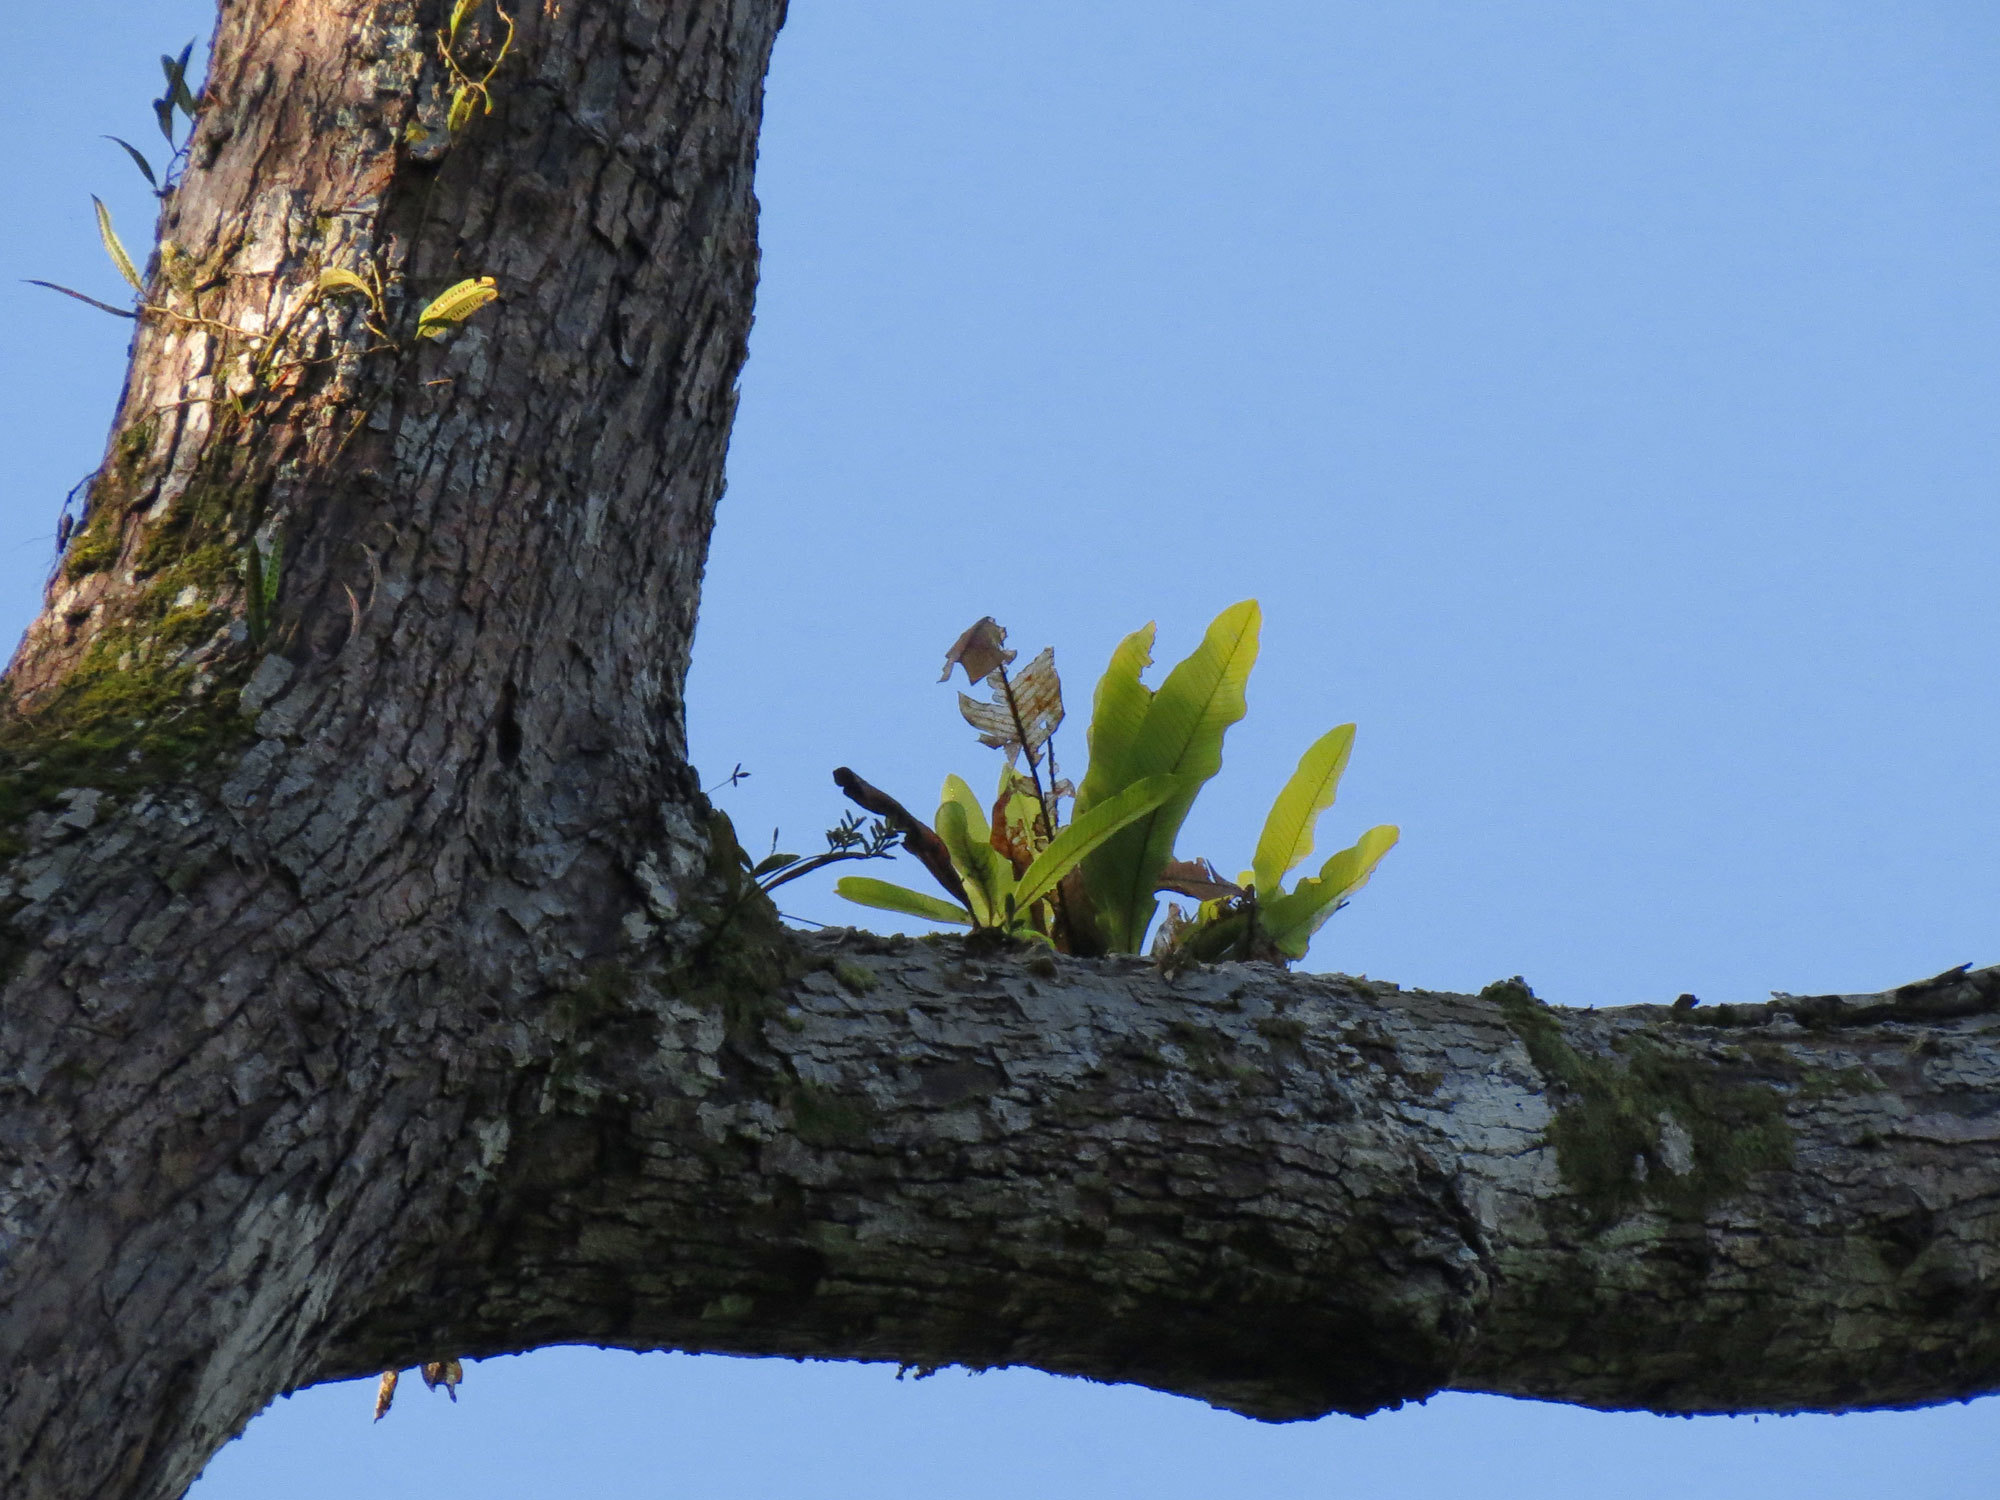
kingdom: Plantae
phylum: Tracheophyta
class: Polypodiopsida
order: Polypodiales
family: Polypodiaceae
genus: Niphidium
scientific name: Niphidium crassifolium
